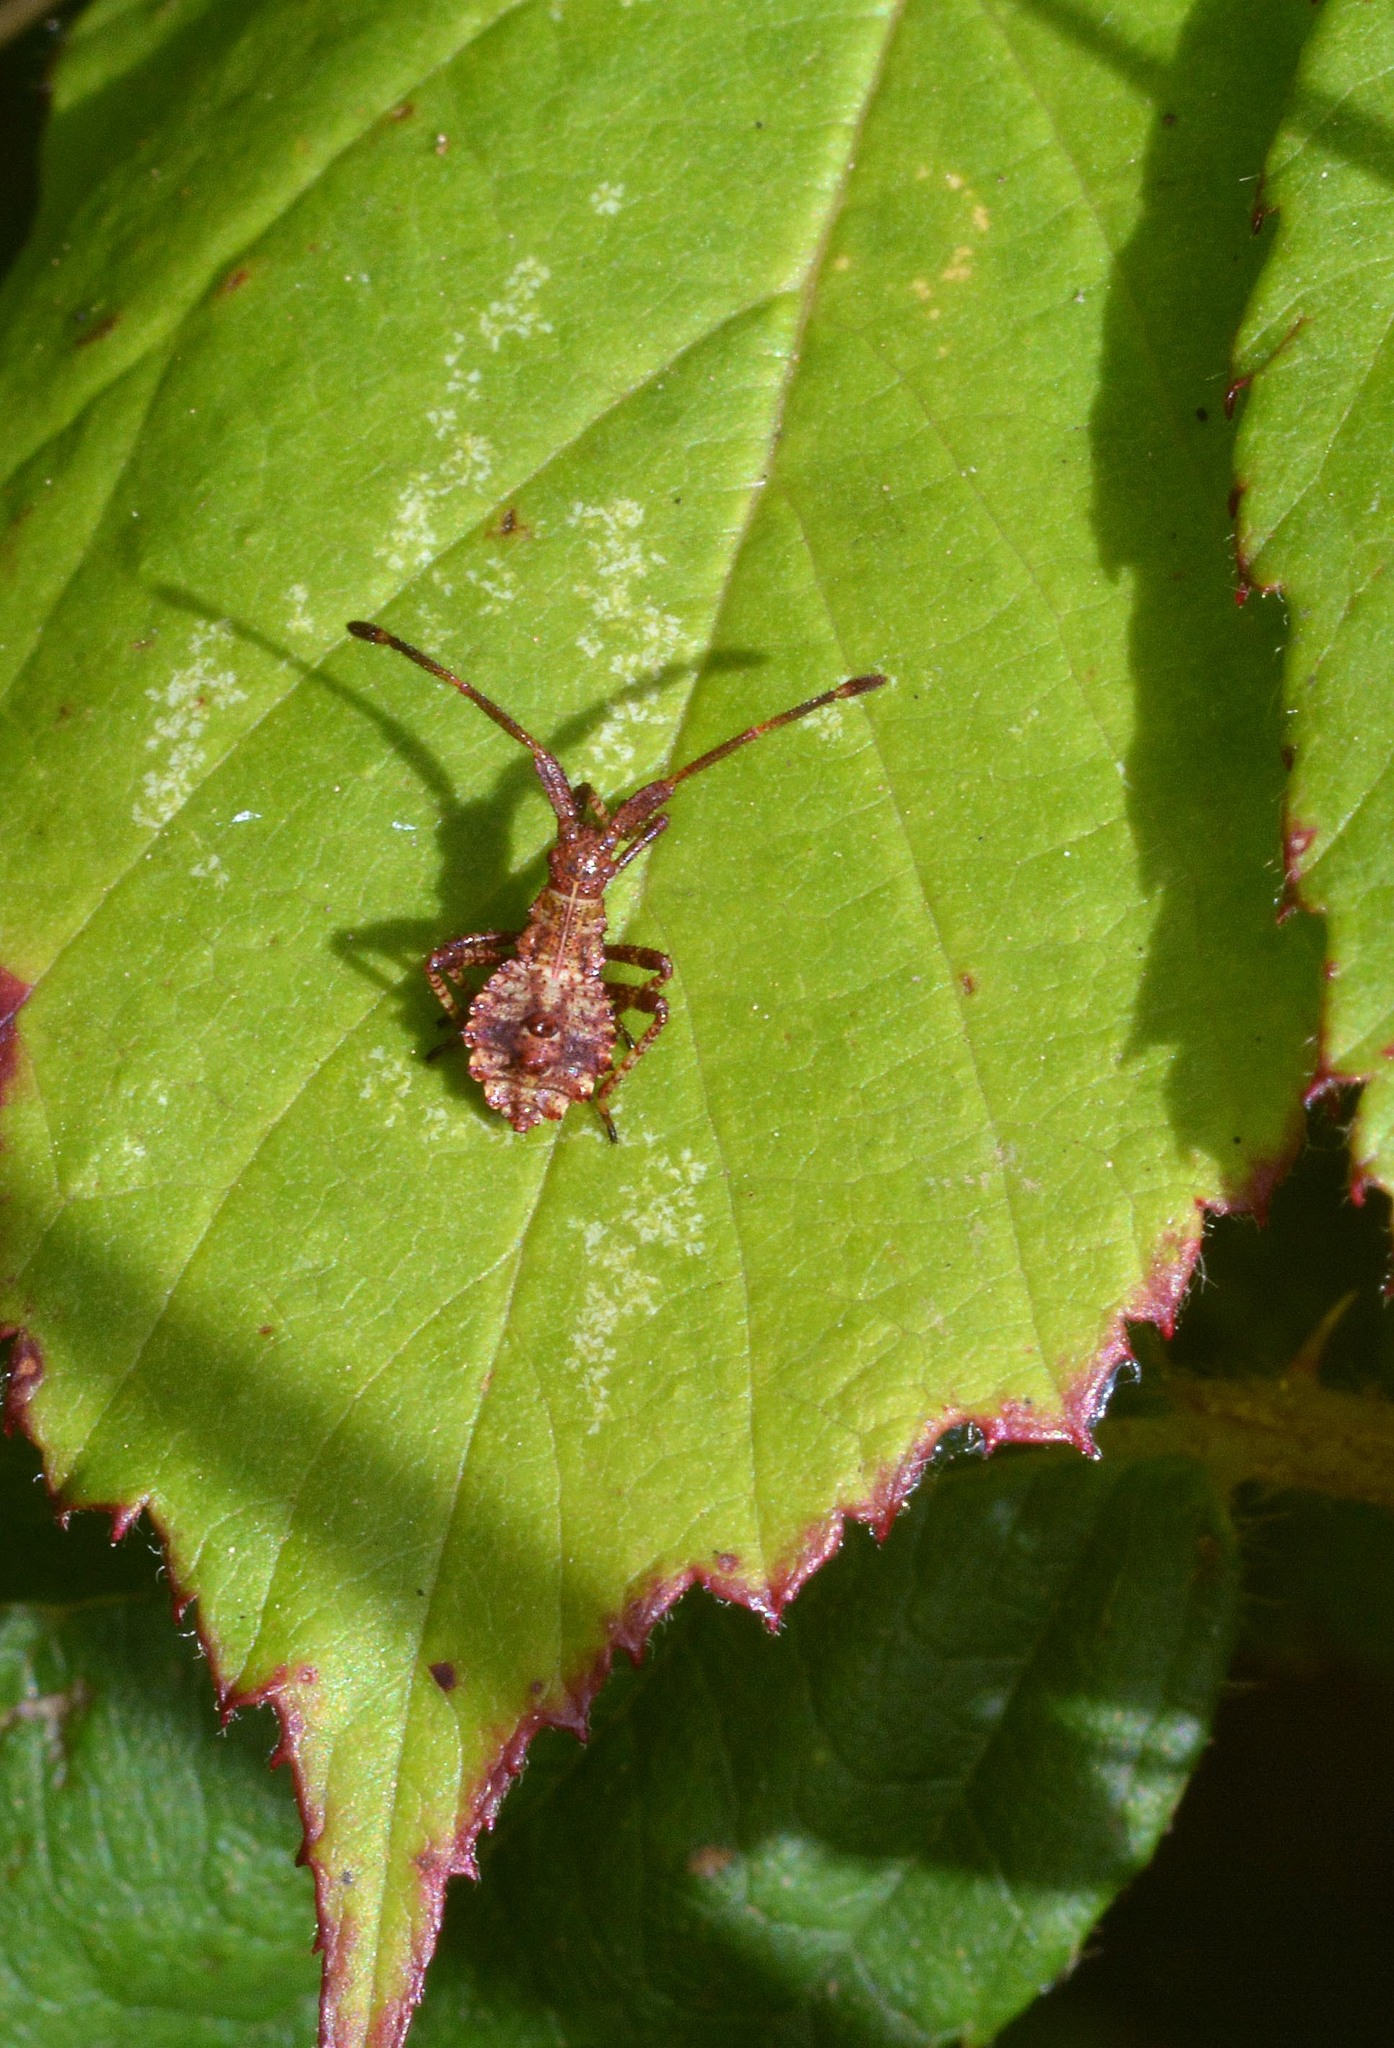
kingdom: Animalia
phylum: Arthropoda
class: Insecta
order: Hemiptera
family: Coreidae
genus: Coreus
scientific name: Coreus marginatus
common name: Dock bug
